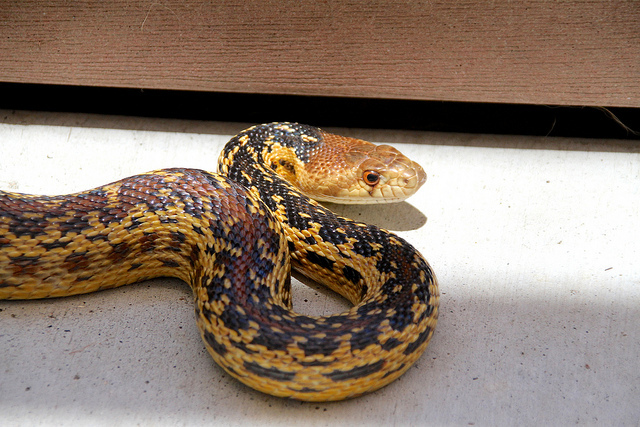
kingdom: Animalia
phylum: Chordata
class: Squamata
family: Colubridae
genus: Pituophis
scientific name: Pituophis catenifer
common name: Gopher snake
